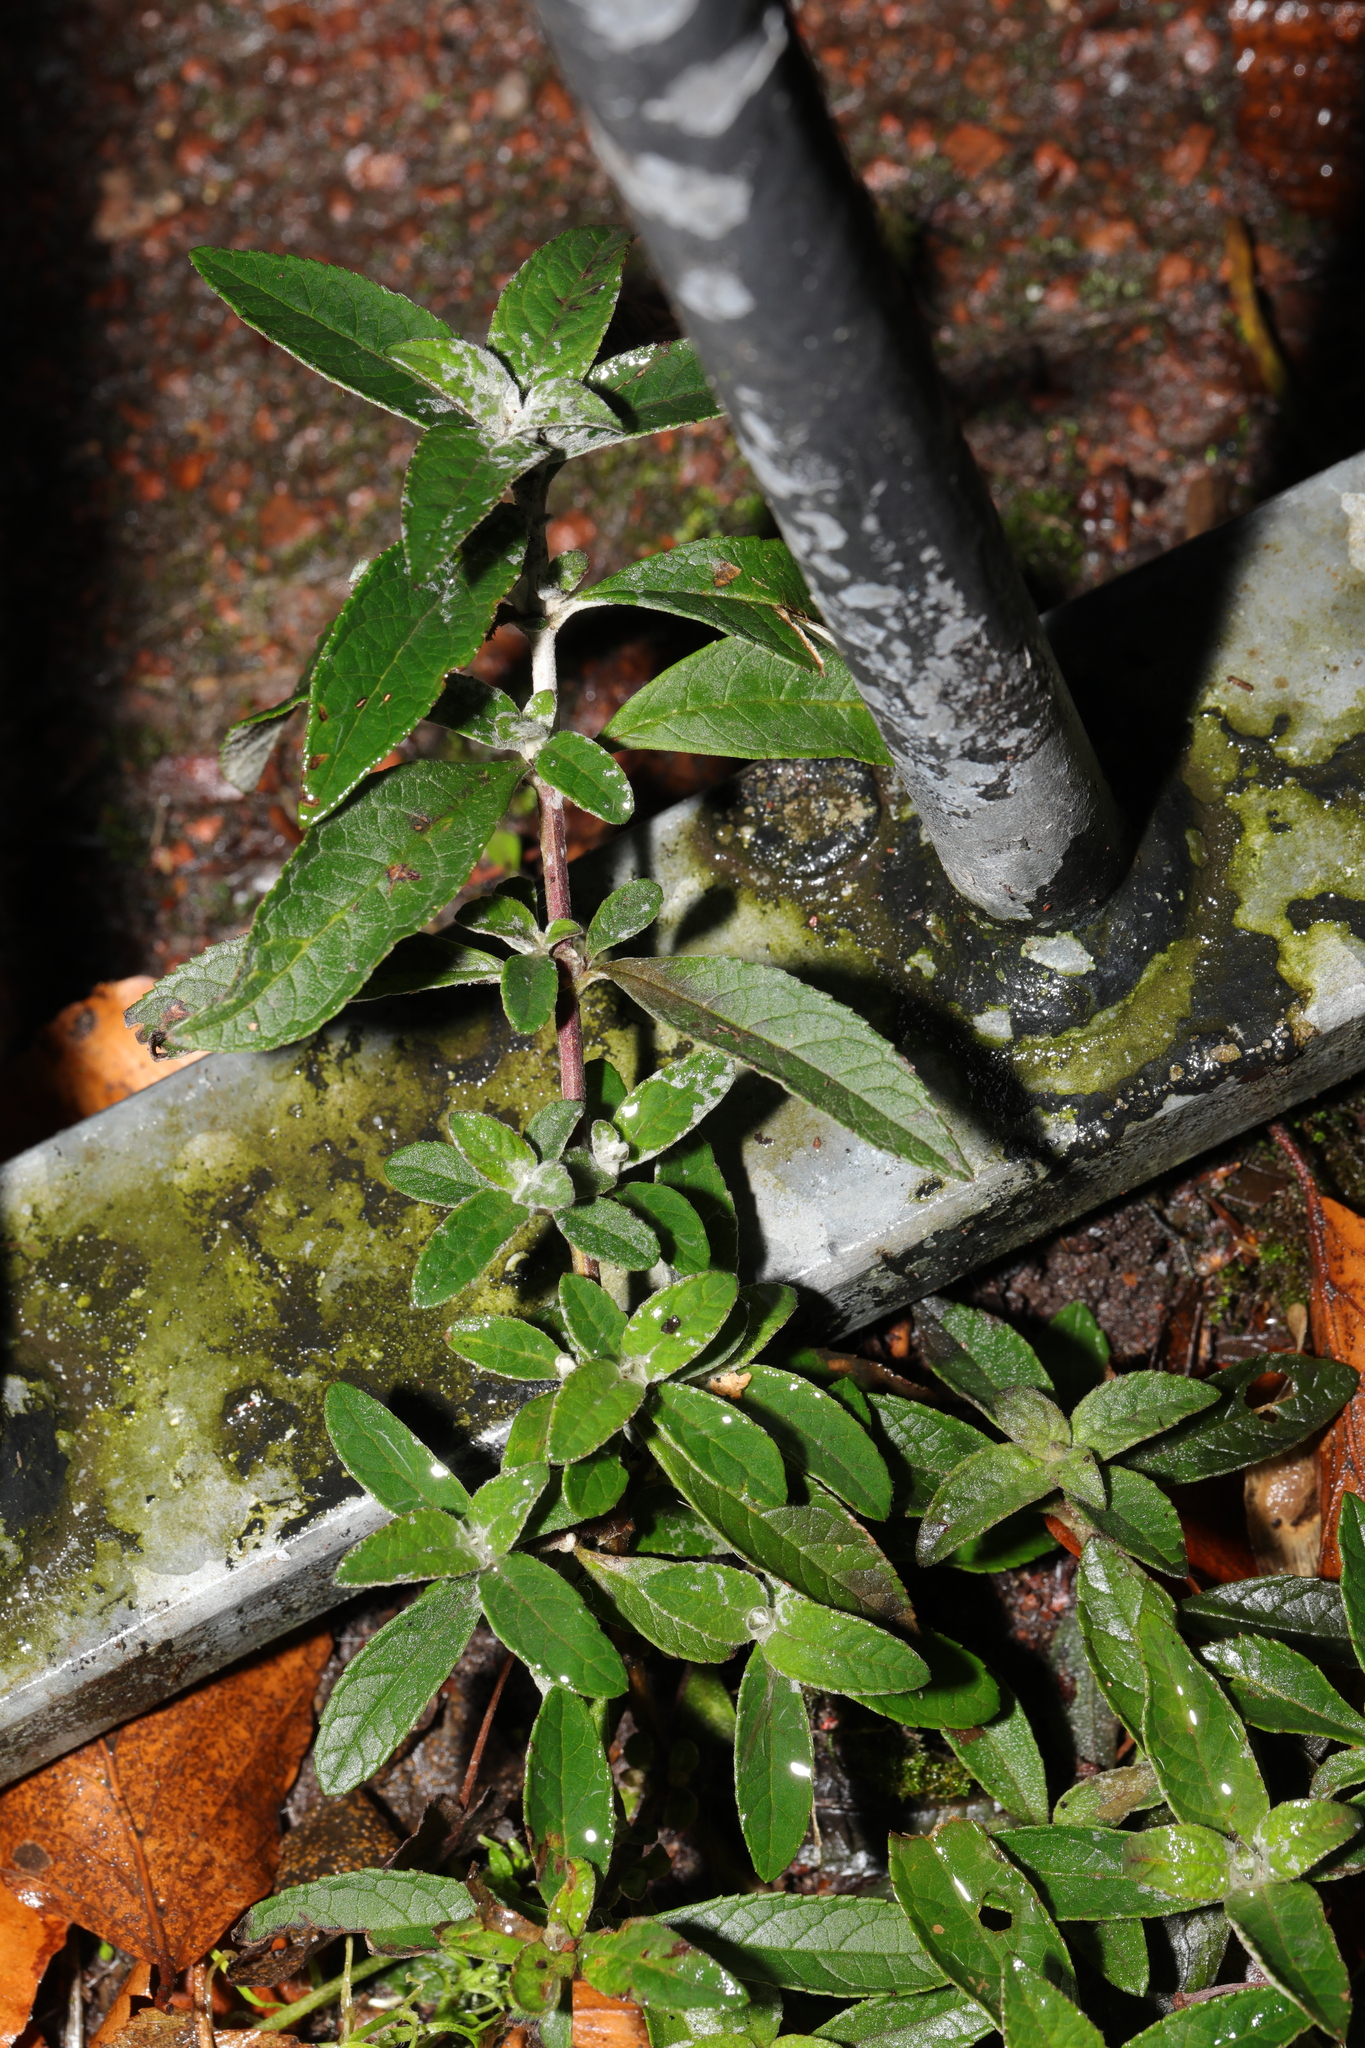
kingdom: Plantae
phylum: Tracheophyta
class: Magnoliopsida
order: Lamiales
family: Scrophulariaceae
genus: Buddleja
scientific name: Buddleja davidii
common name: Butterfly-bush
